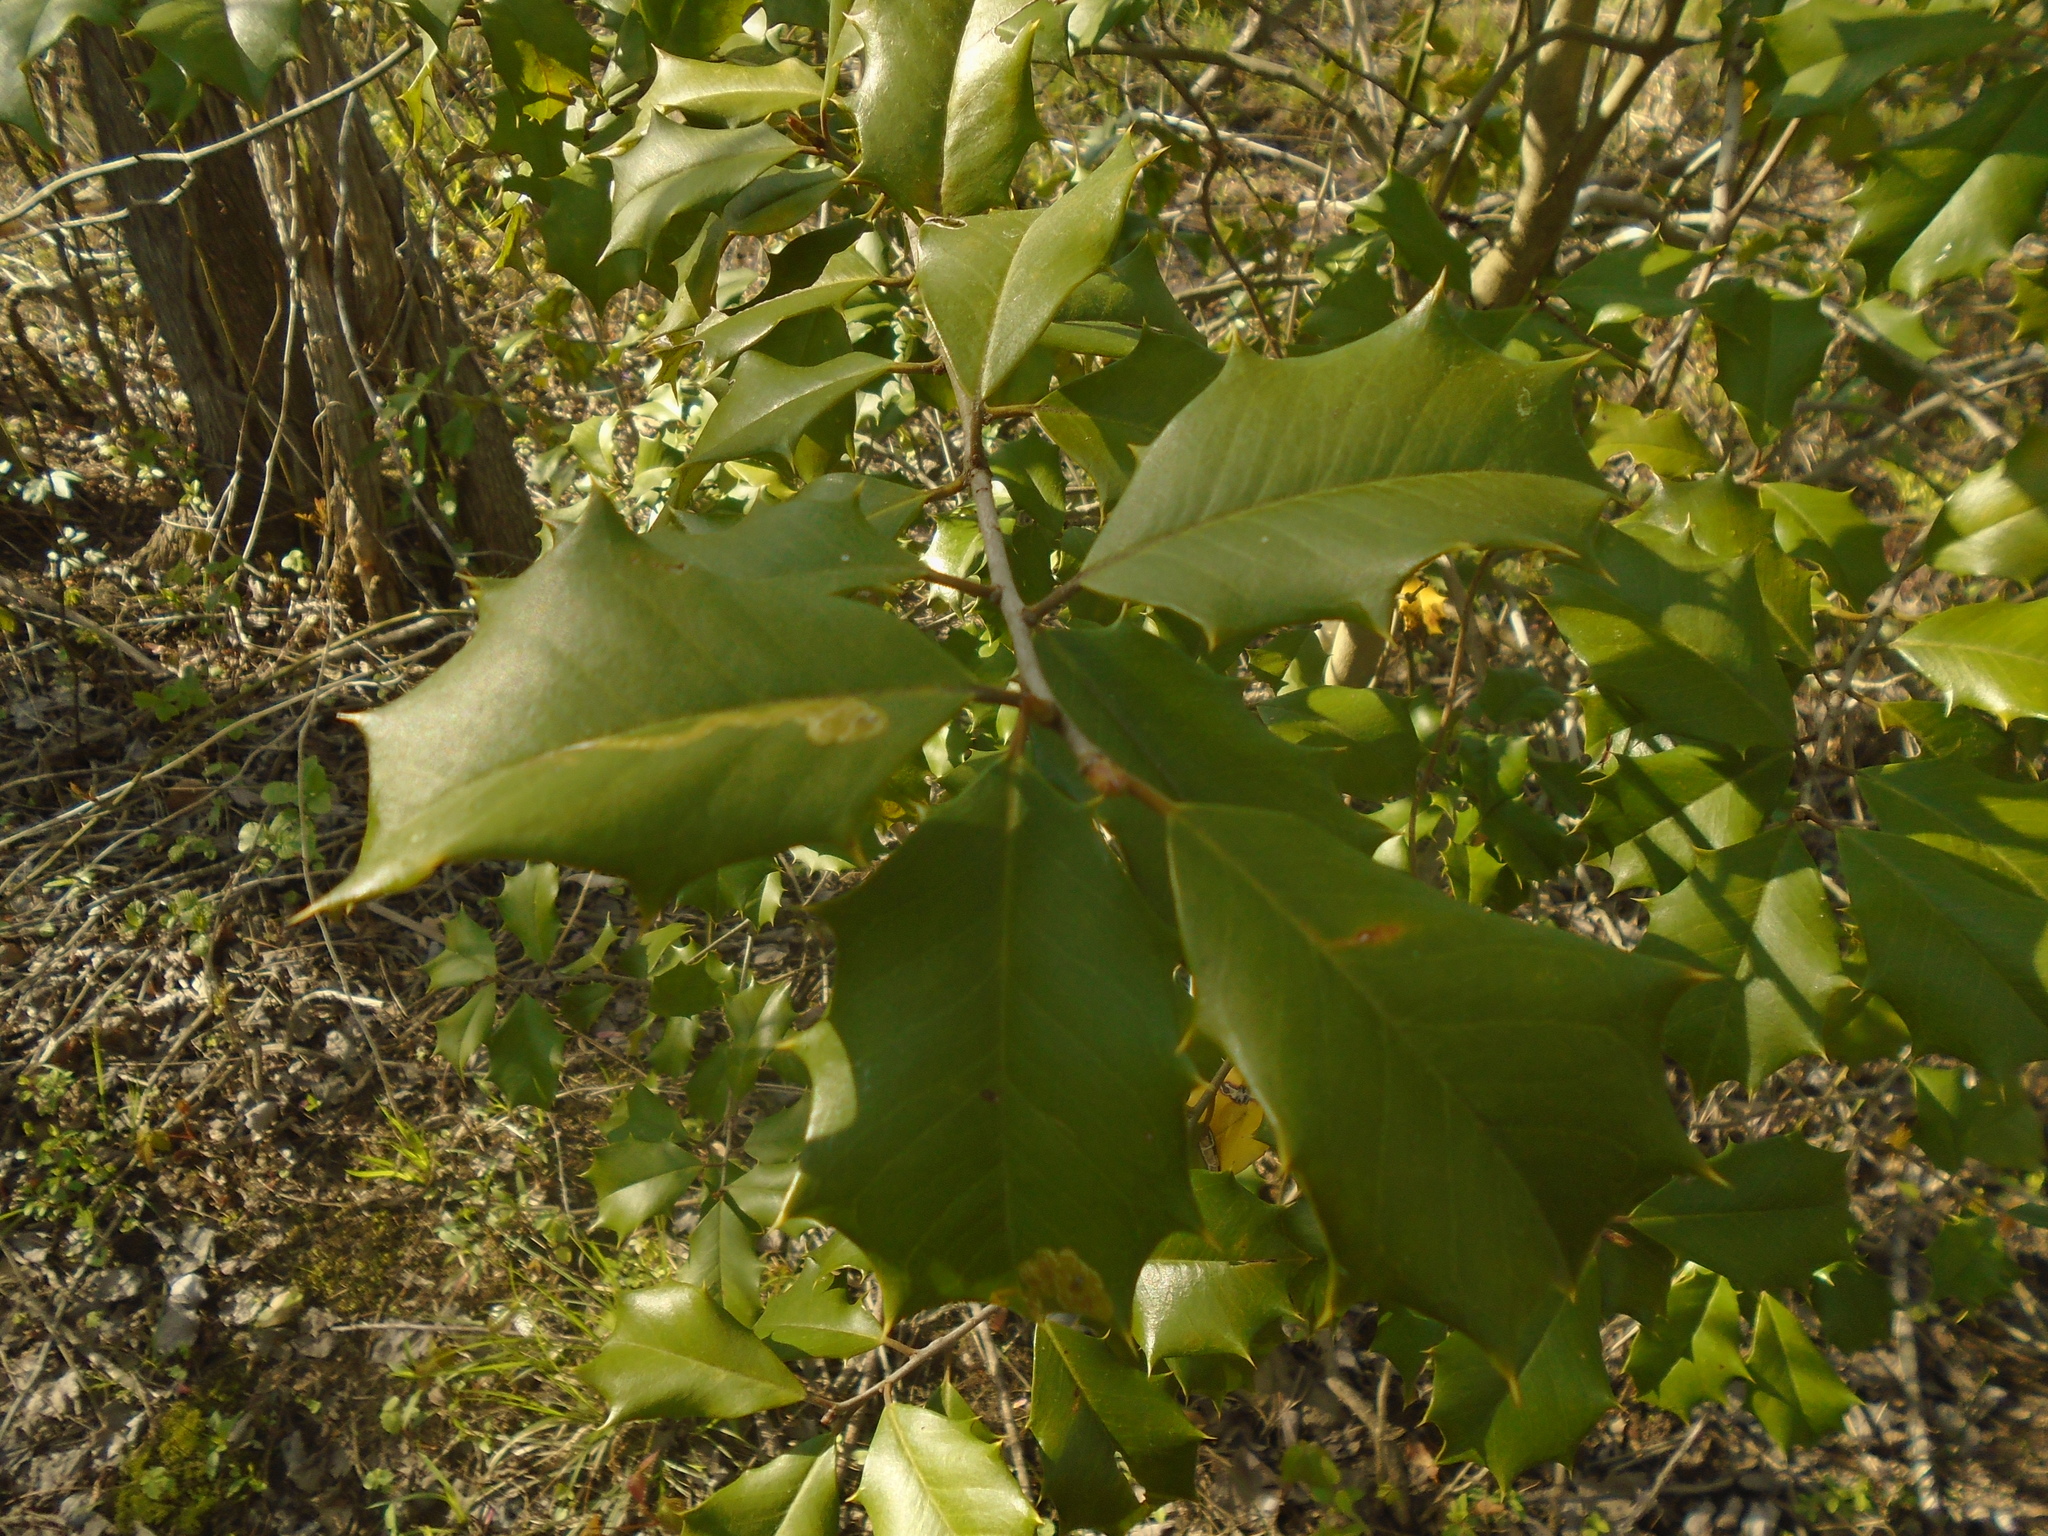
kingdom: Plantae
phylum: Tracheophyta
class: Magnoliopsida
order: Aquifoliales
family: Aquifoliaceae
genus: Ilex
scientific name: Ilex opaca
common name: American holly
